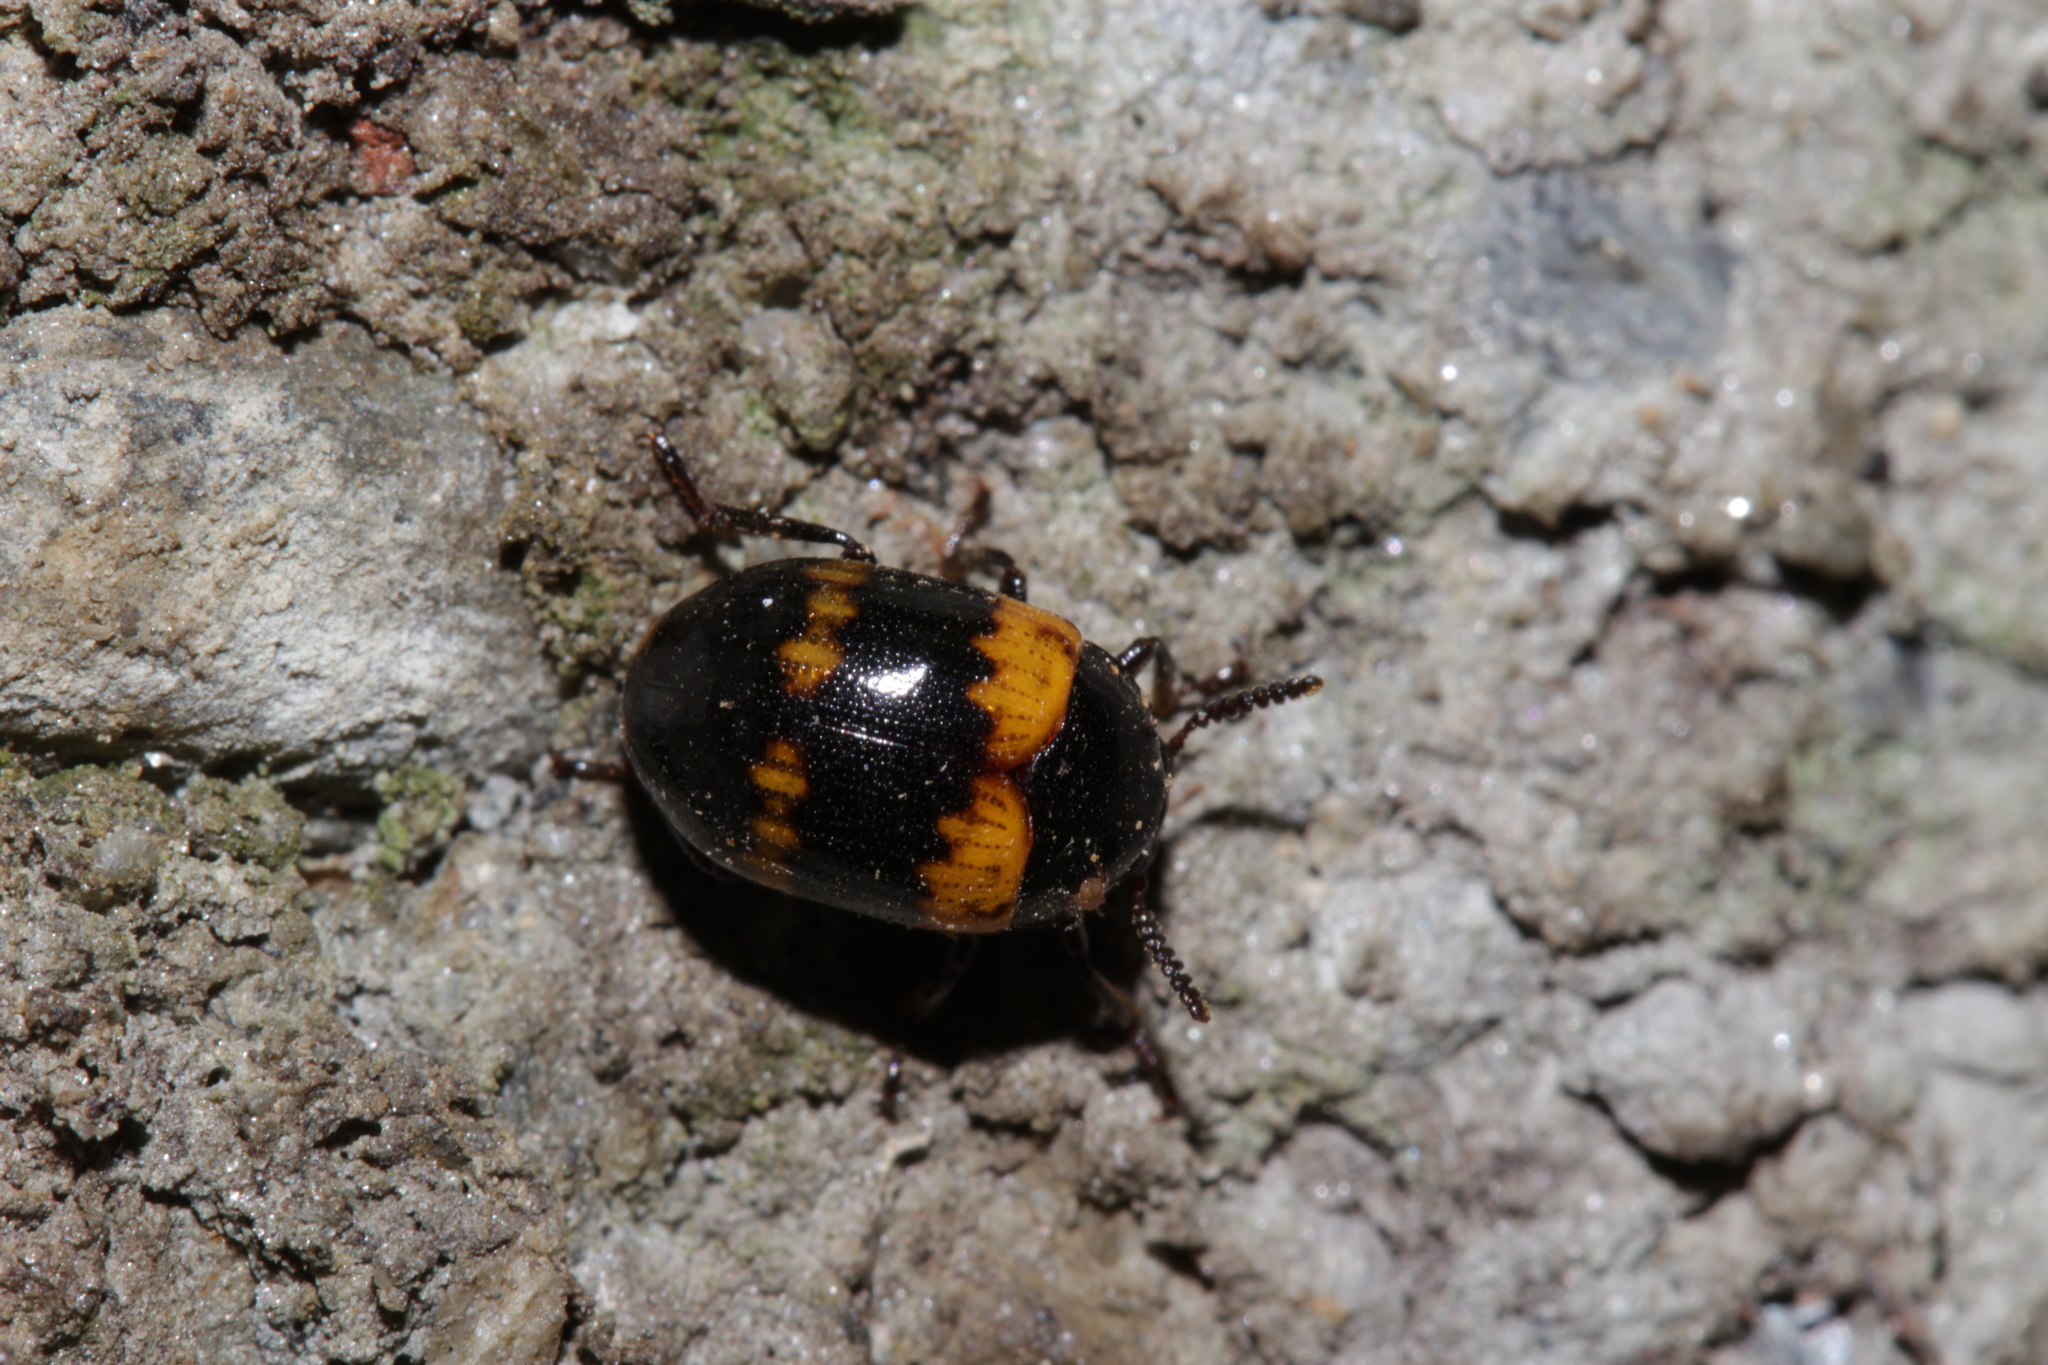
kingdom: Animalia
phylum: Arthropoda
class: Insecta
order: Coleoptera
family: Tenebrionidae
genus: Diaperis
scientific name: Diaperis boleti
